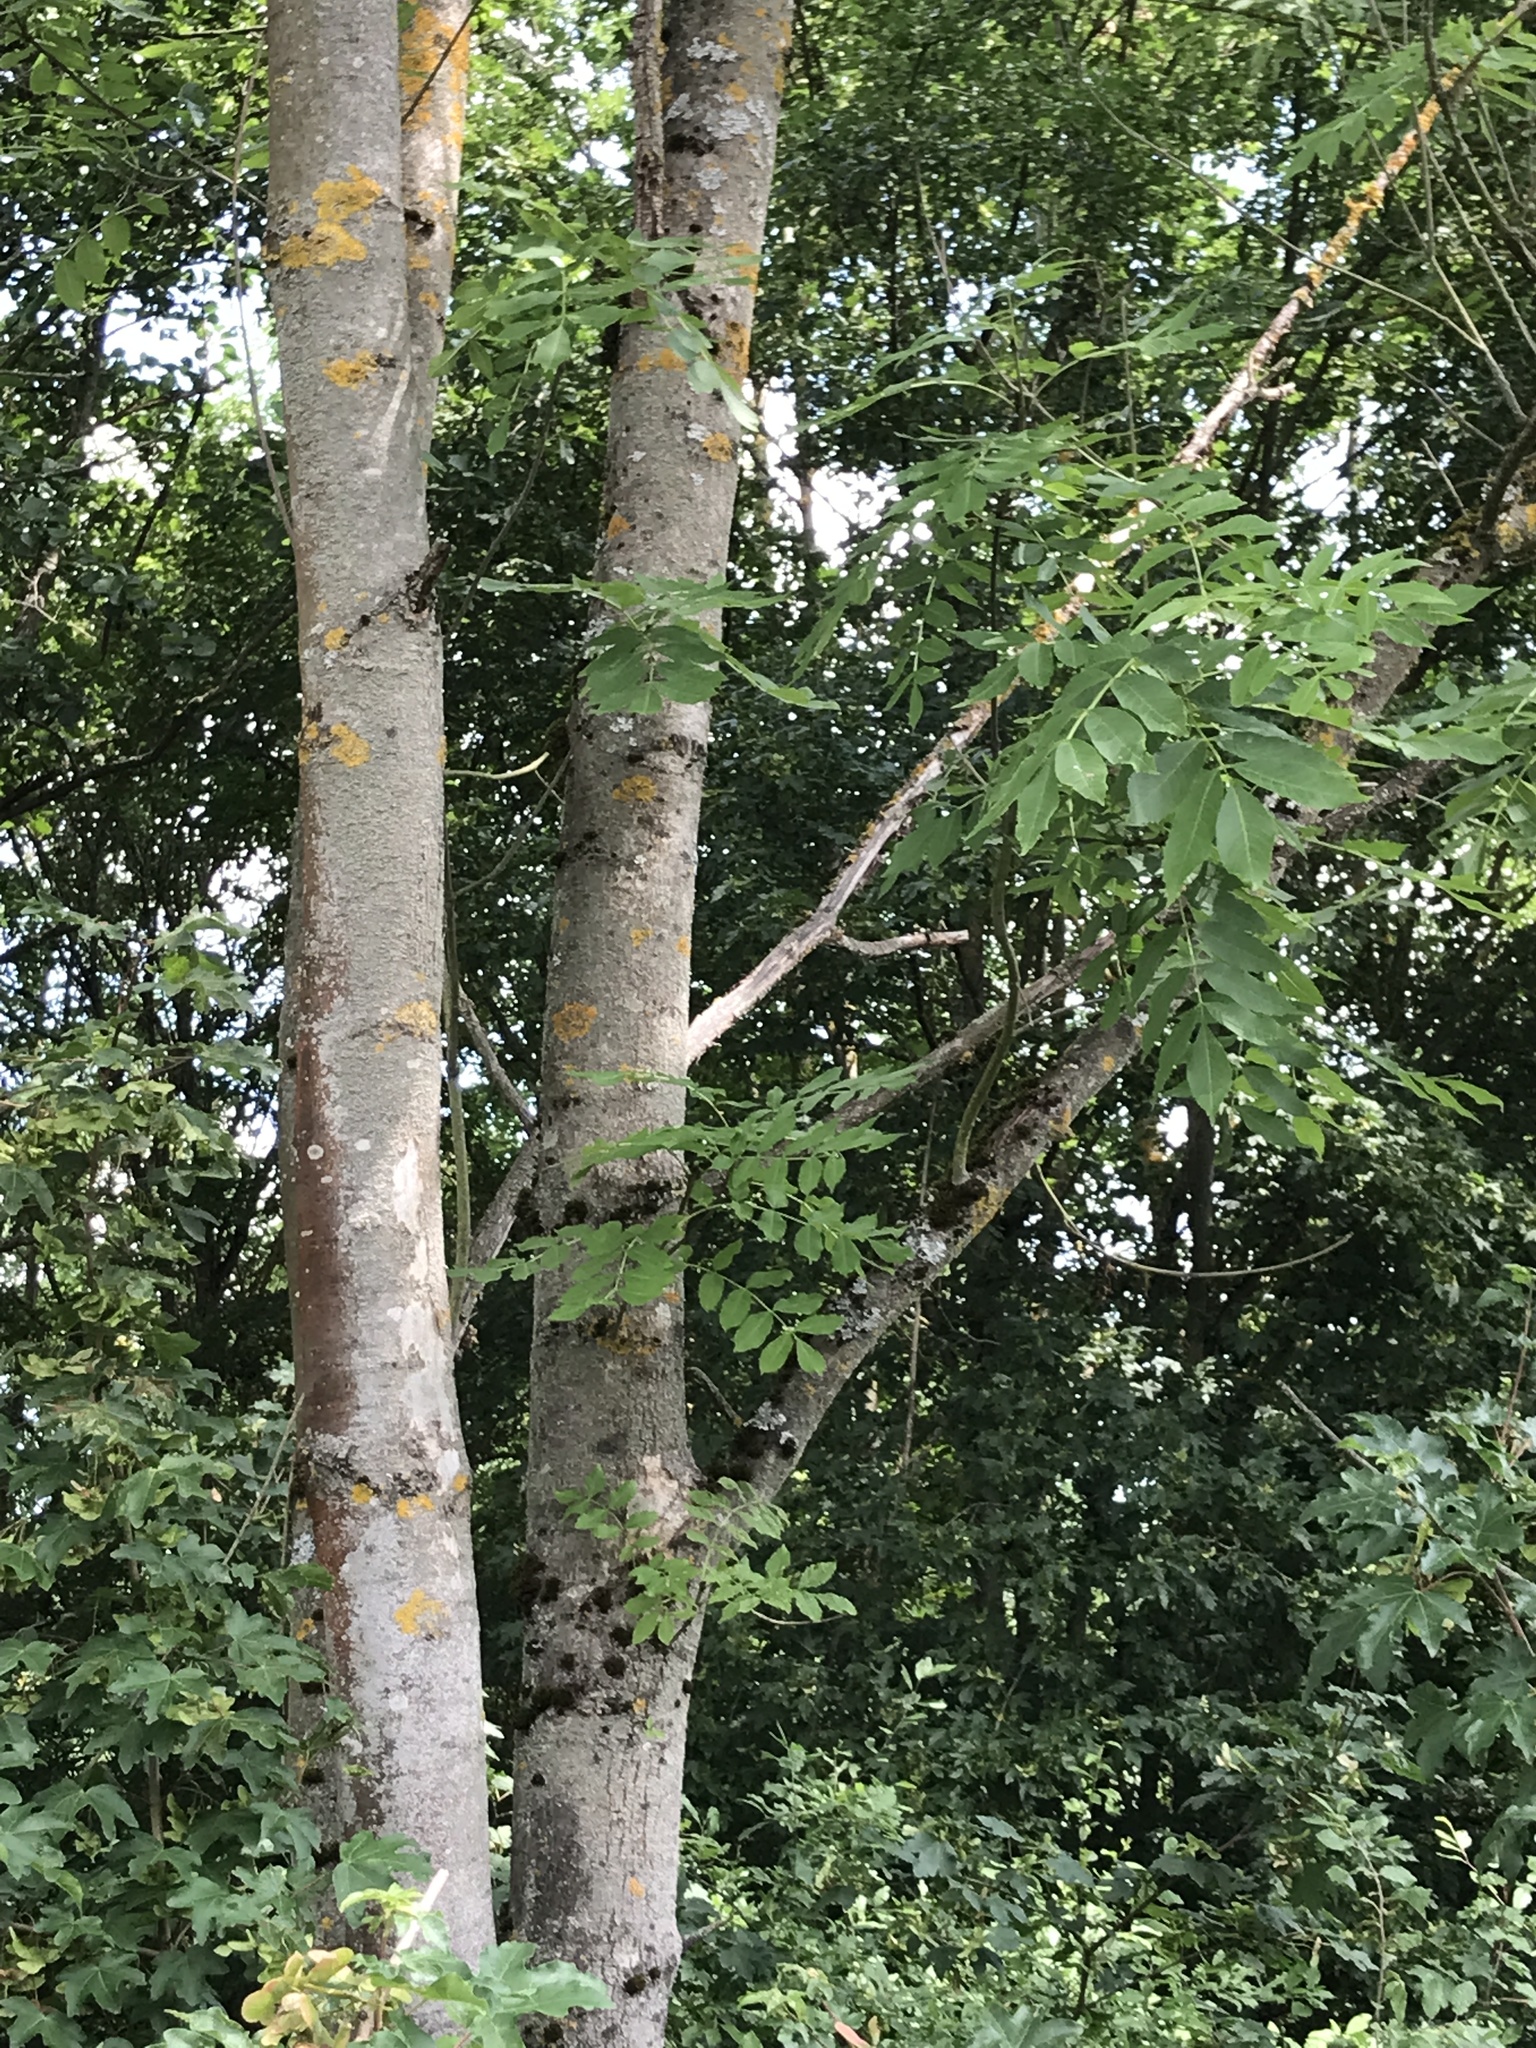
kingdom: Plantae
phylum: Tracheophyta
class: Magnoliopsida
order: Lamiales
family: Oleaceae
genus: Fraxinus
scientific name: Fraxinus excelsior
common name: European ash
